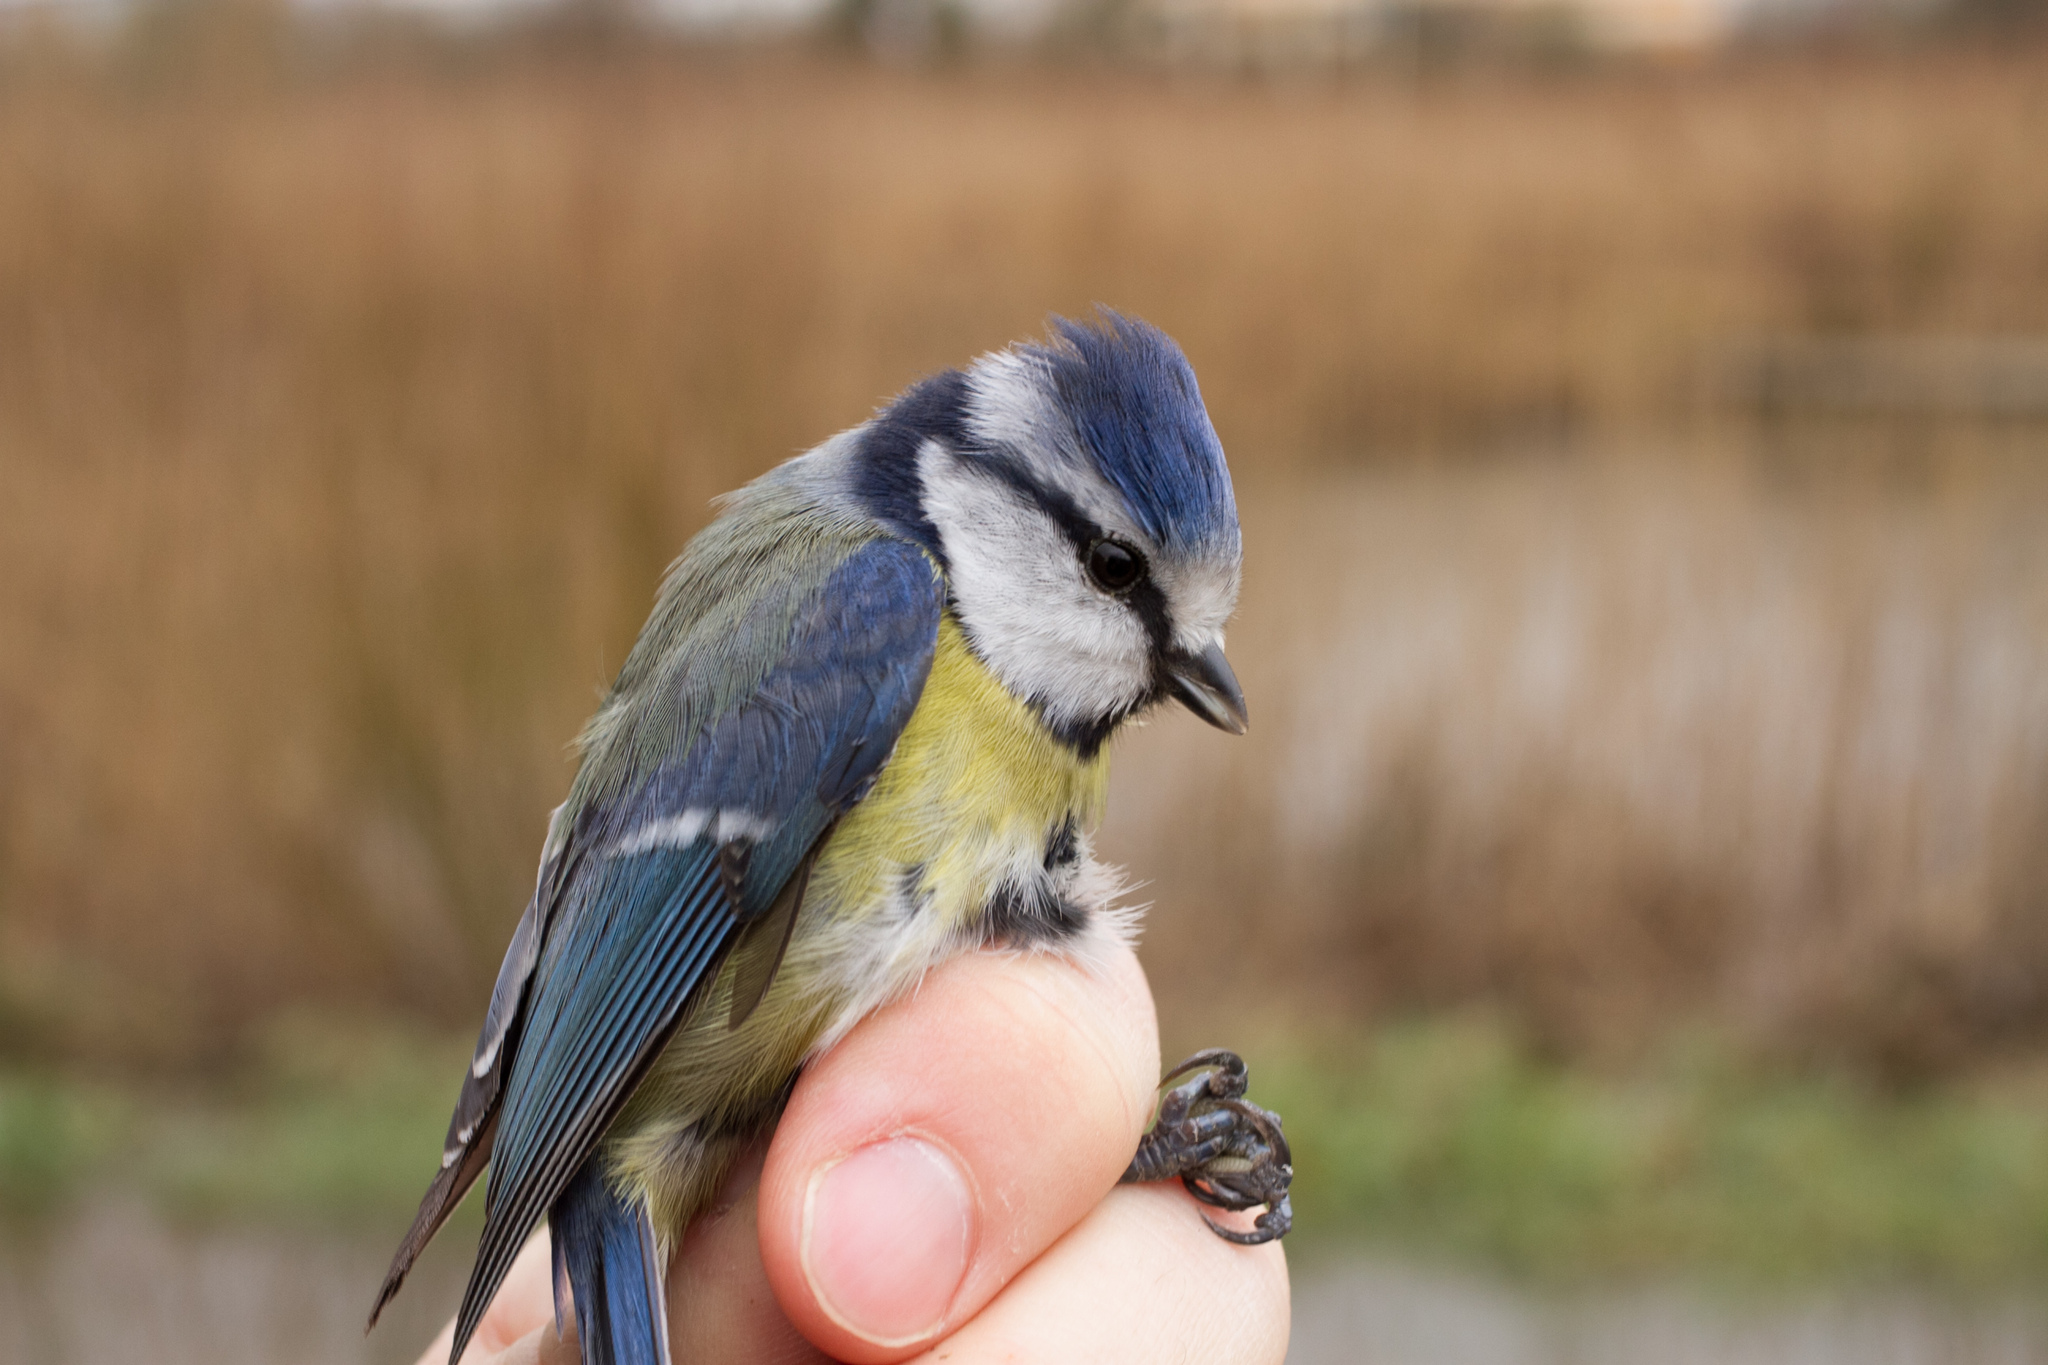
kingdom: Animalia
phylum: Chordata
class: Aves
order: Passeriformes
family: Paridae
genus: Cyanistes
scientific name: Cyanistes caeruleus
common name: Eurasian blue tit
